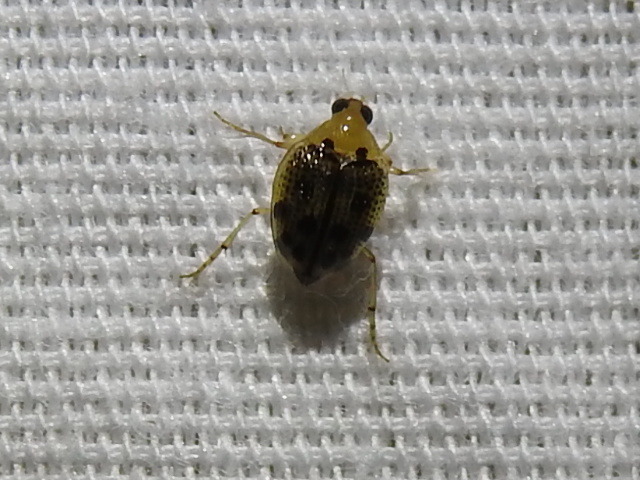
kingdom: Animalia
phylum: Arthropoda
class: Insecta
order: Coleoptera
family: Haliplidae
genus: Peltodytes
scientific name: Peltodytes litoralis
